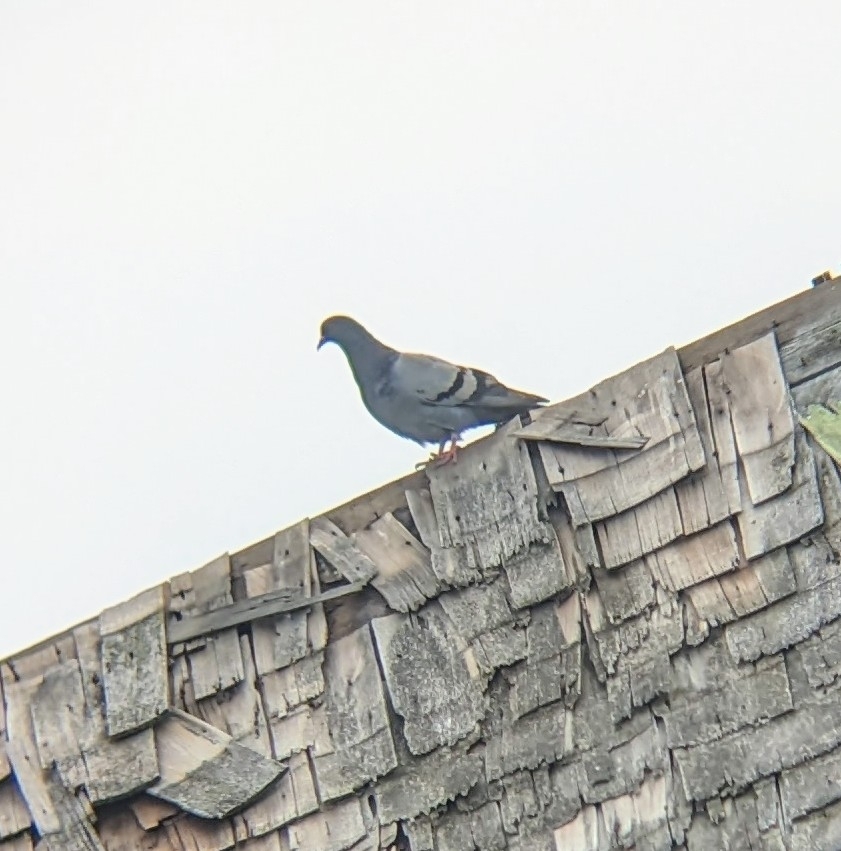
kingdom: Animalia
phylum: Chordata
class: Aves
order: Columbiformes
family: Columbidae
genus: Columba
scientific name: Columba livia
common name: Rock pigeon
